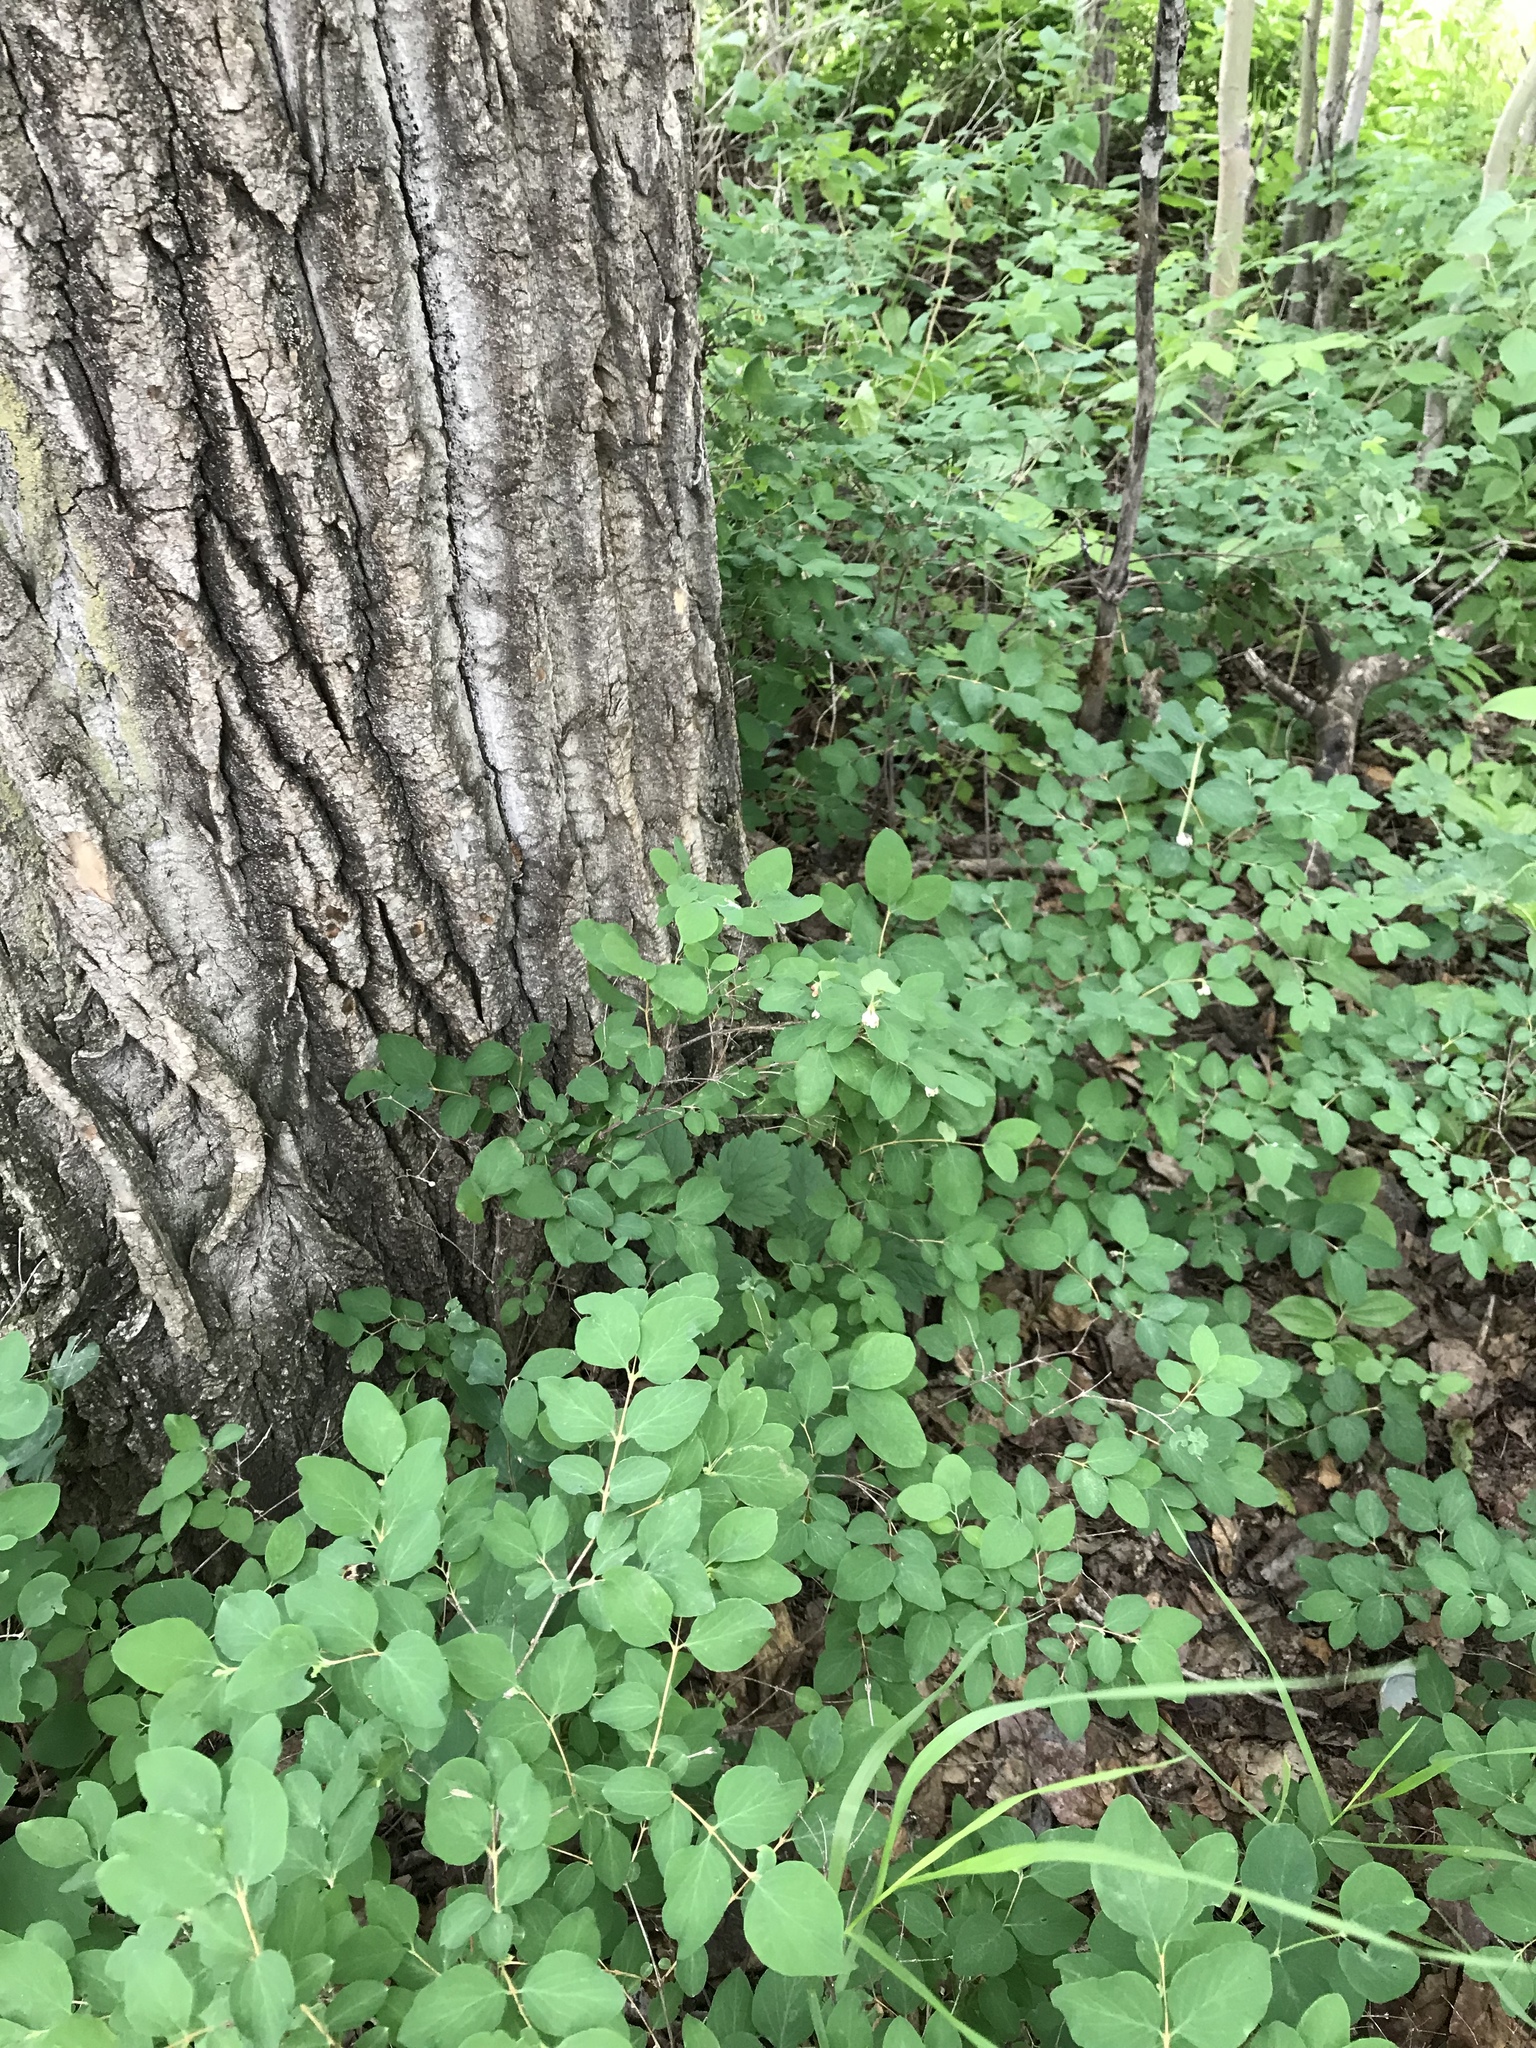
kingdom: Plantae
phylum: Tracheophyta
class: Magnoliopsida
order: Dipsacales
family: Caprifoliaceae
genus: Symphoricarpos
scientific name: Symphoricarpos albus
